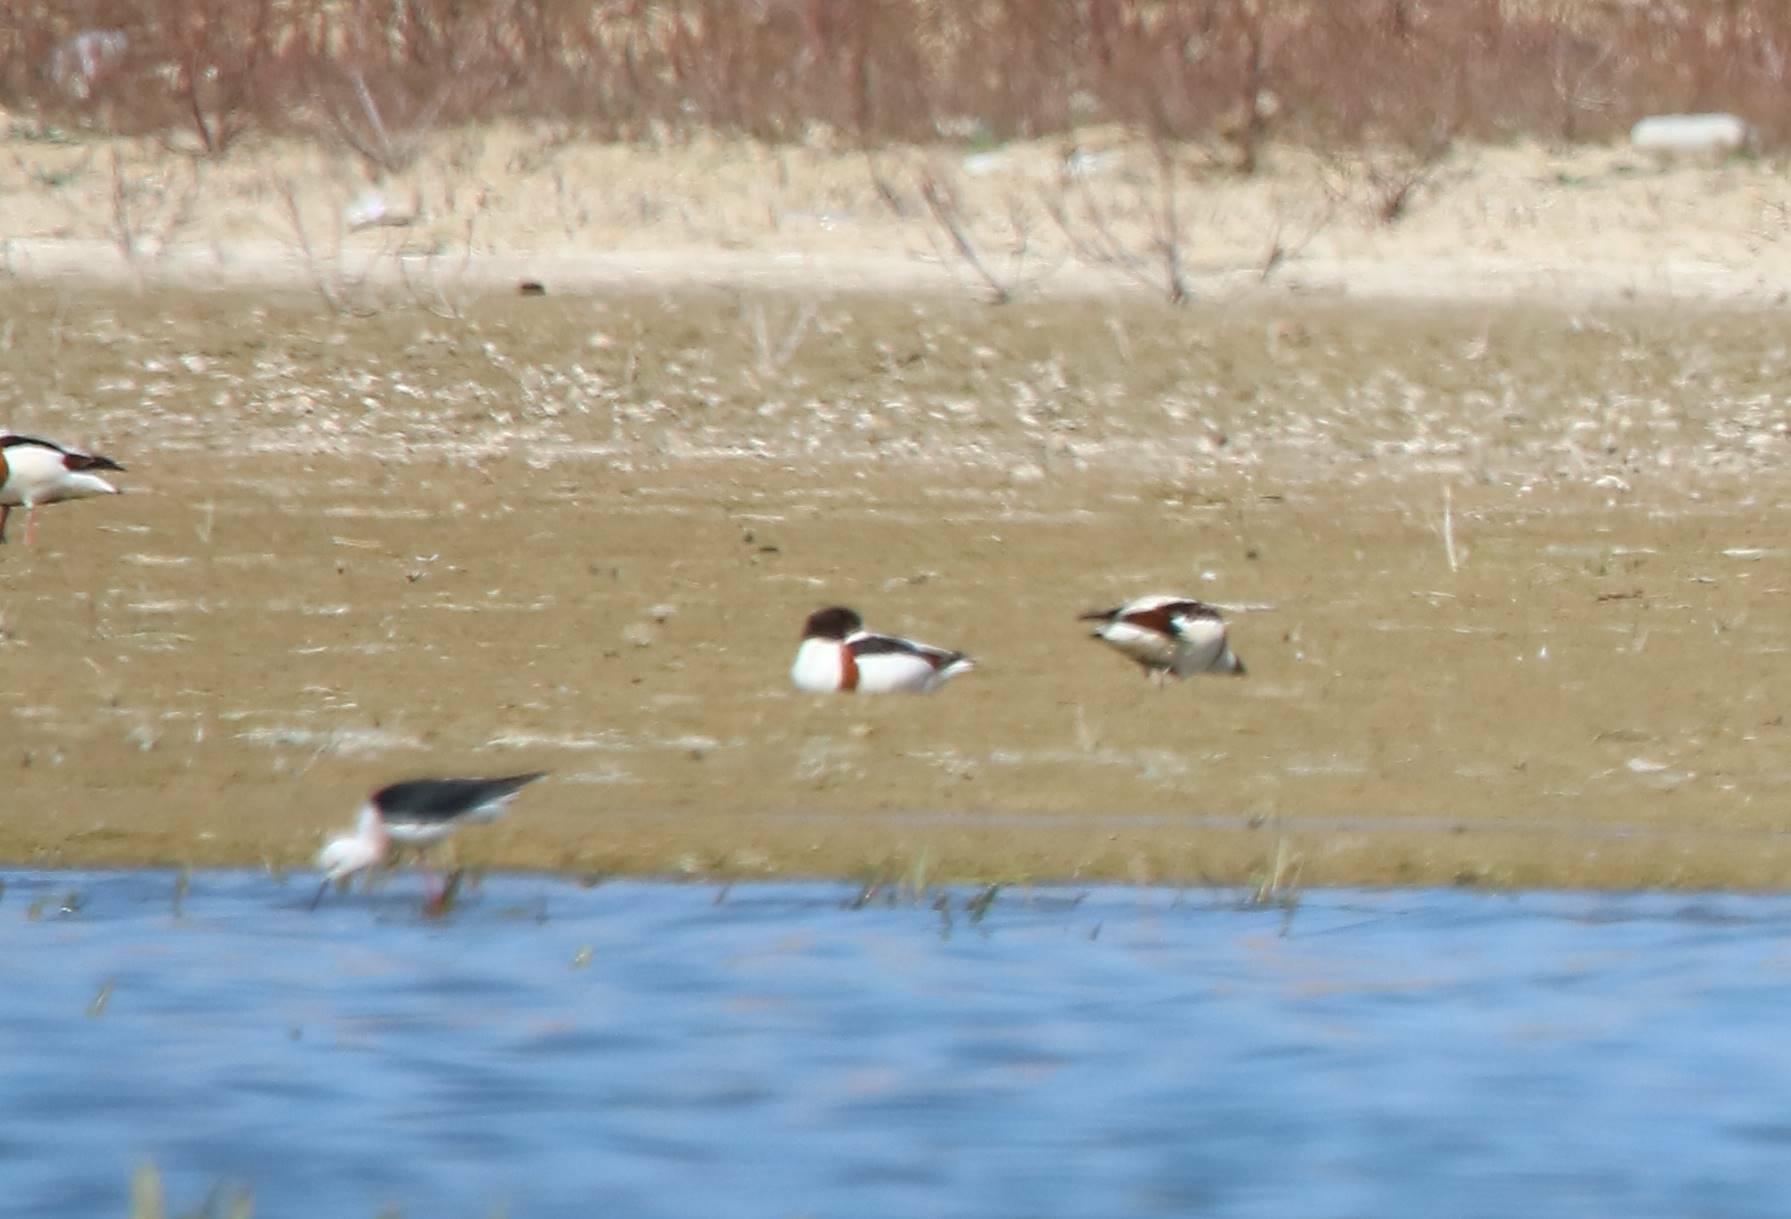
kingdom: Animalia
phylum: Chordata
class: Aves
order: Anseriformes
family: Anatidae
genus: Tadorna
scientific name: Tadorna tadorna
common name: Common shelduck
